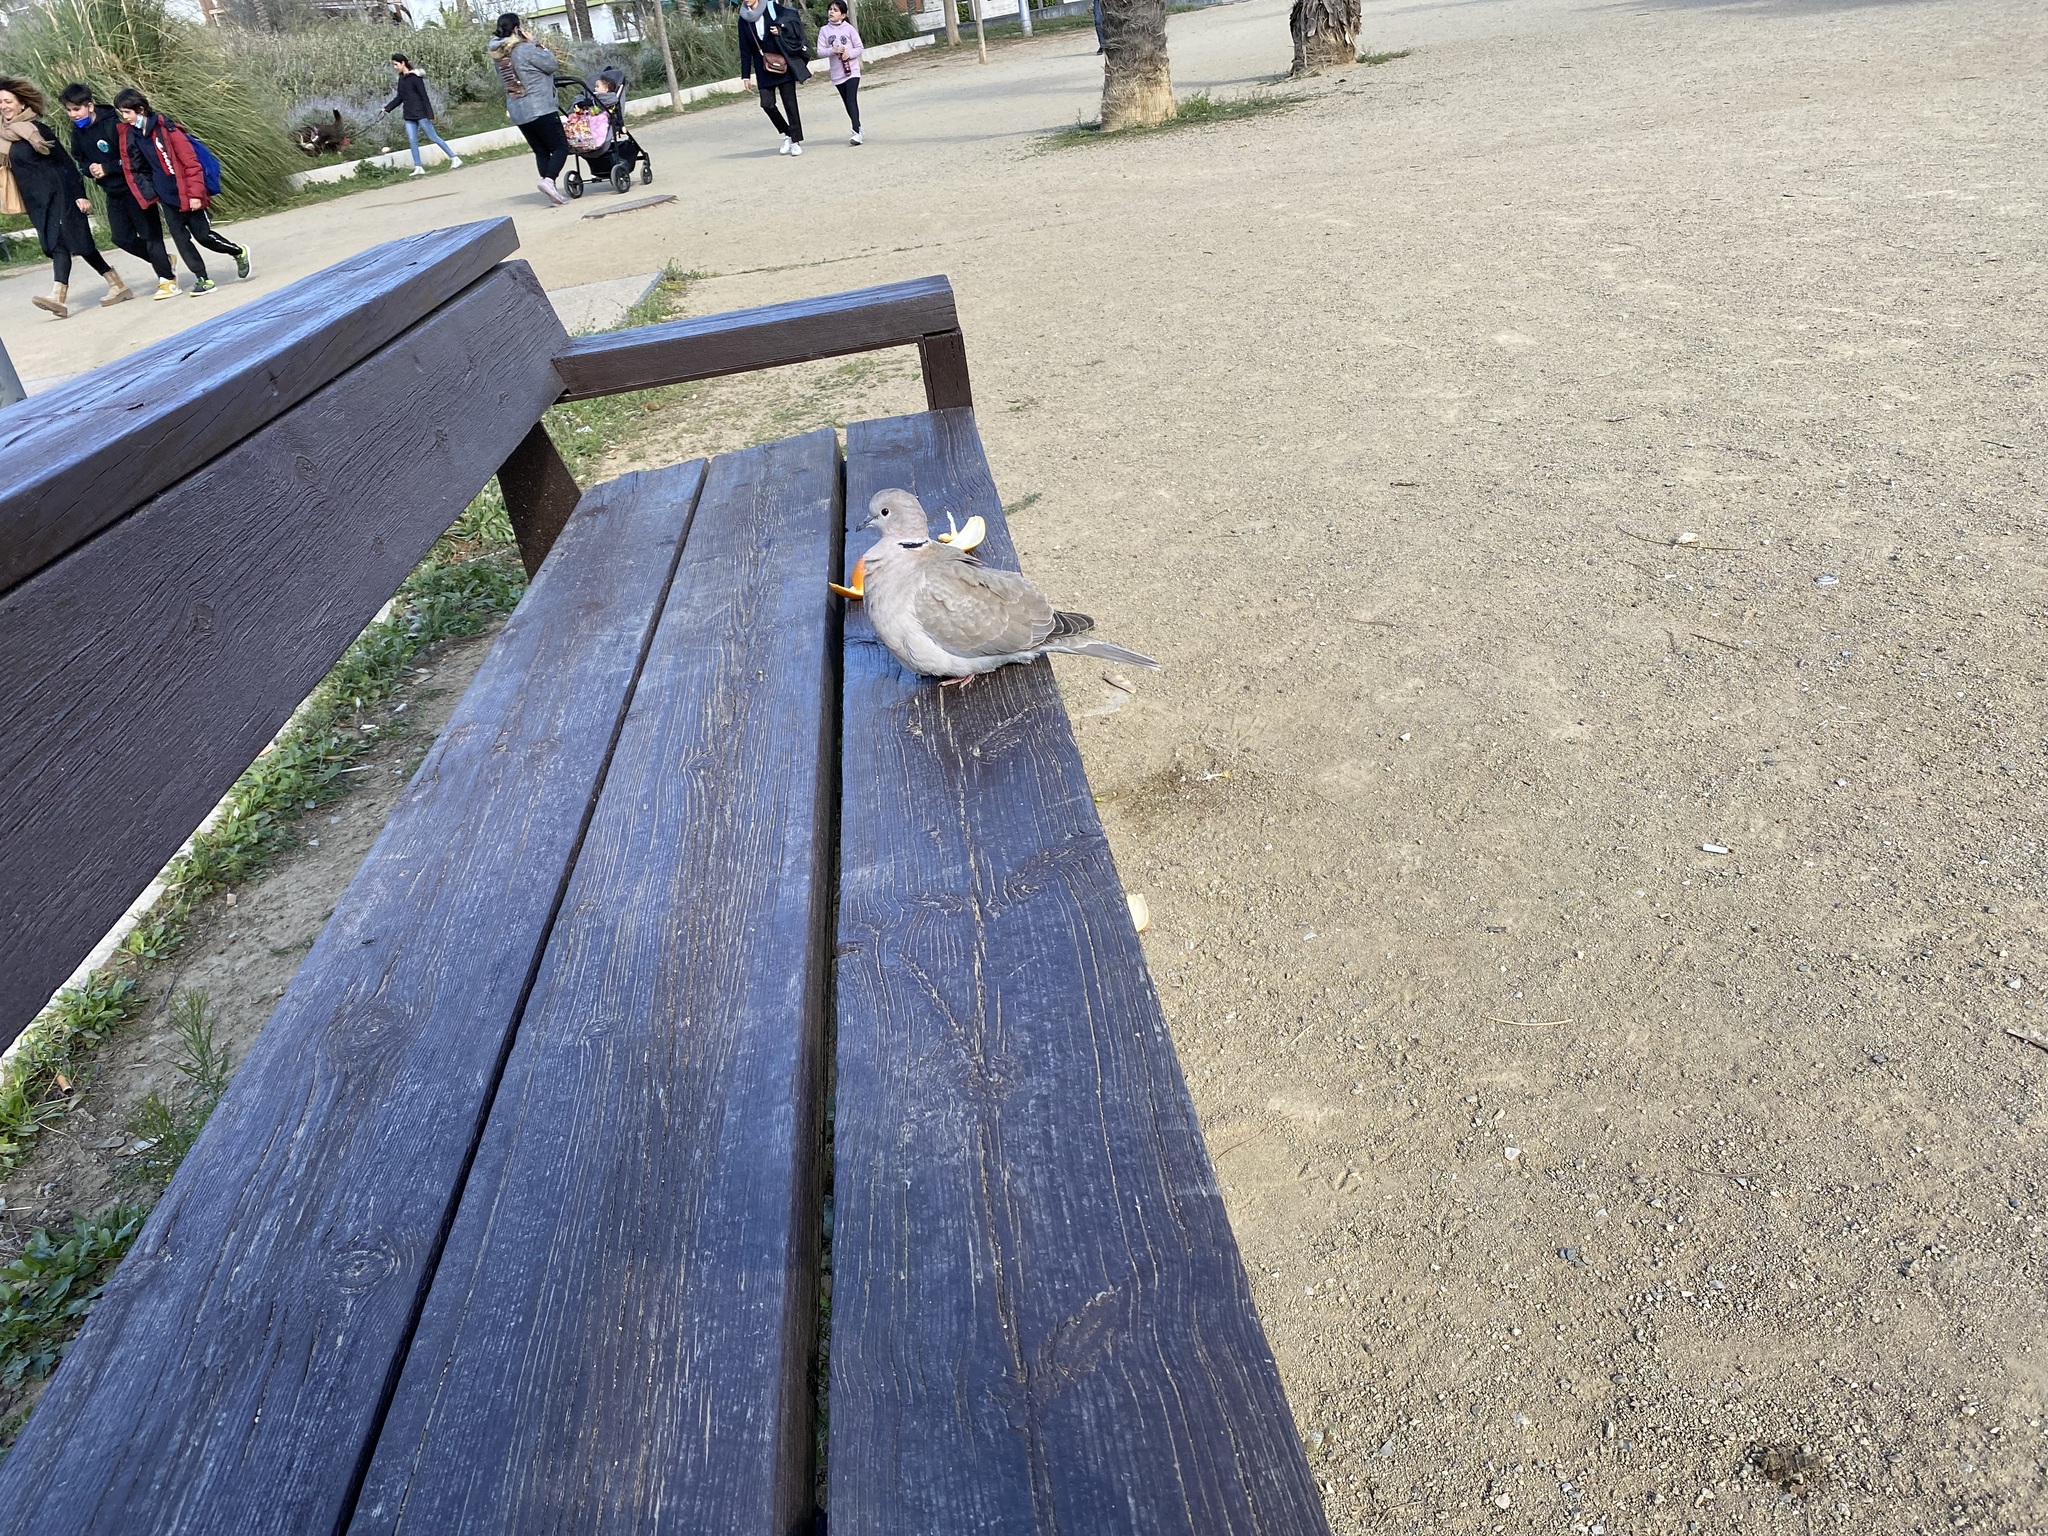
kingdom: Animalia
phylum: Chordata
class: Aves
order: Columbiformes
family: Columbidae
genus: Streptopelia
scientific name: Streptopelia decaocto
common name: Eurasian collared dove
